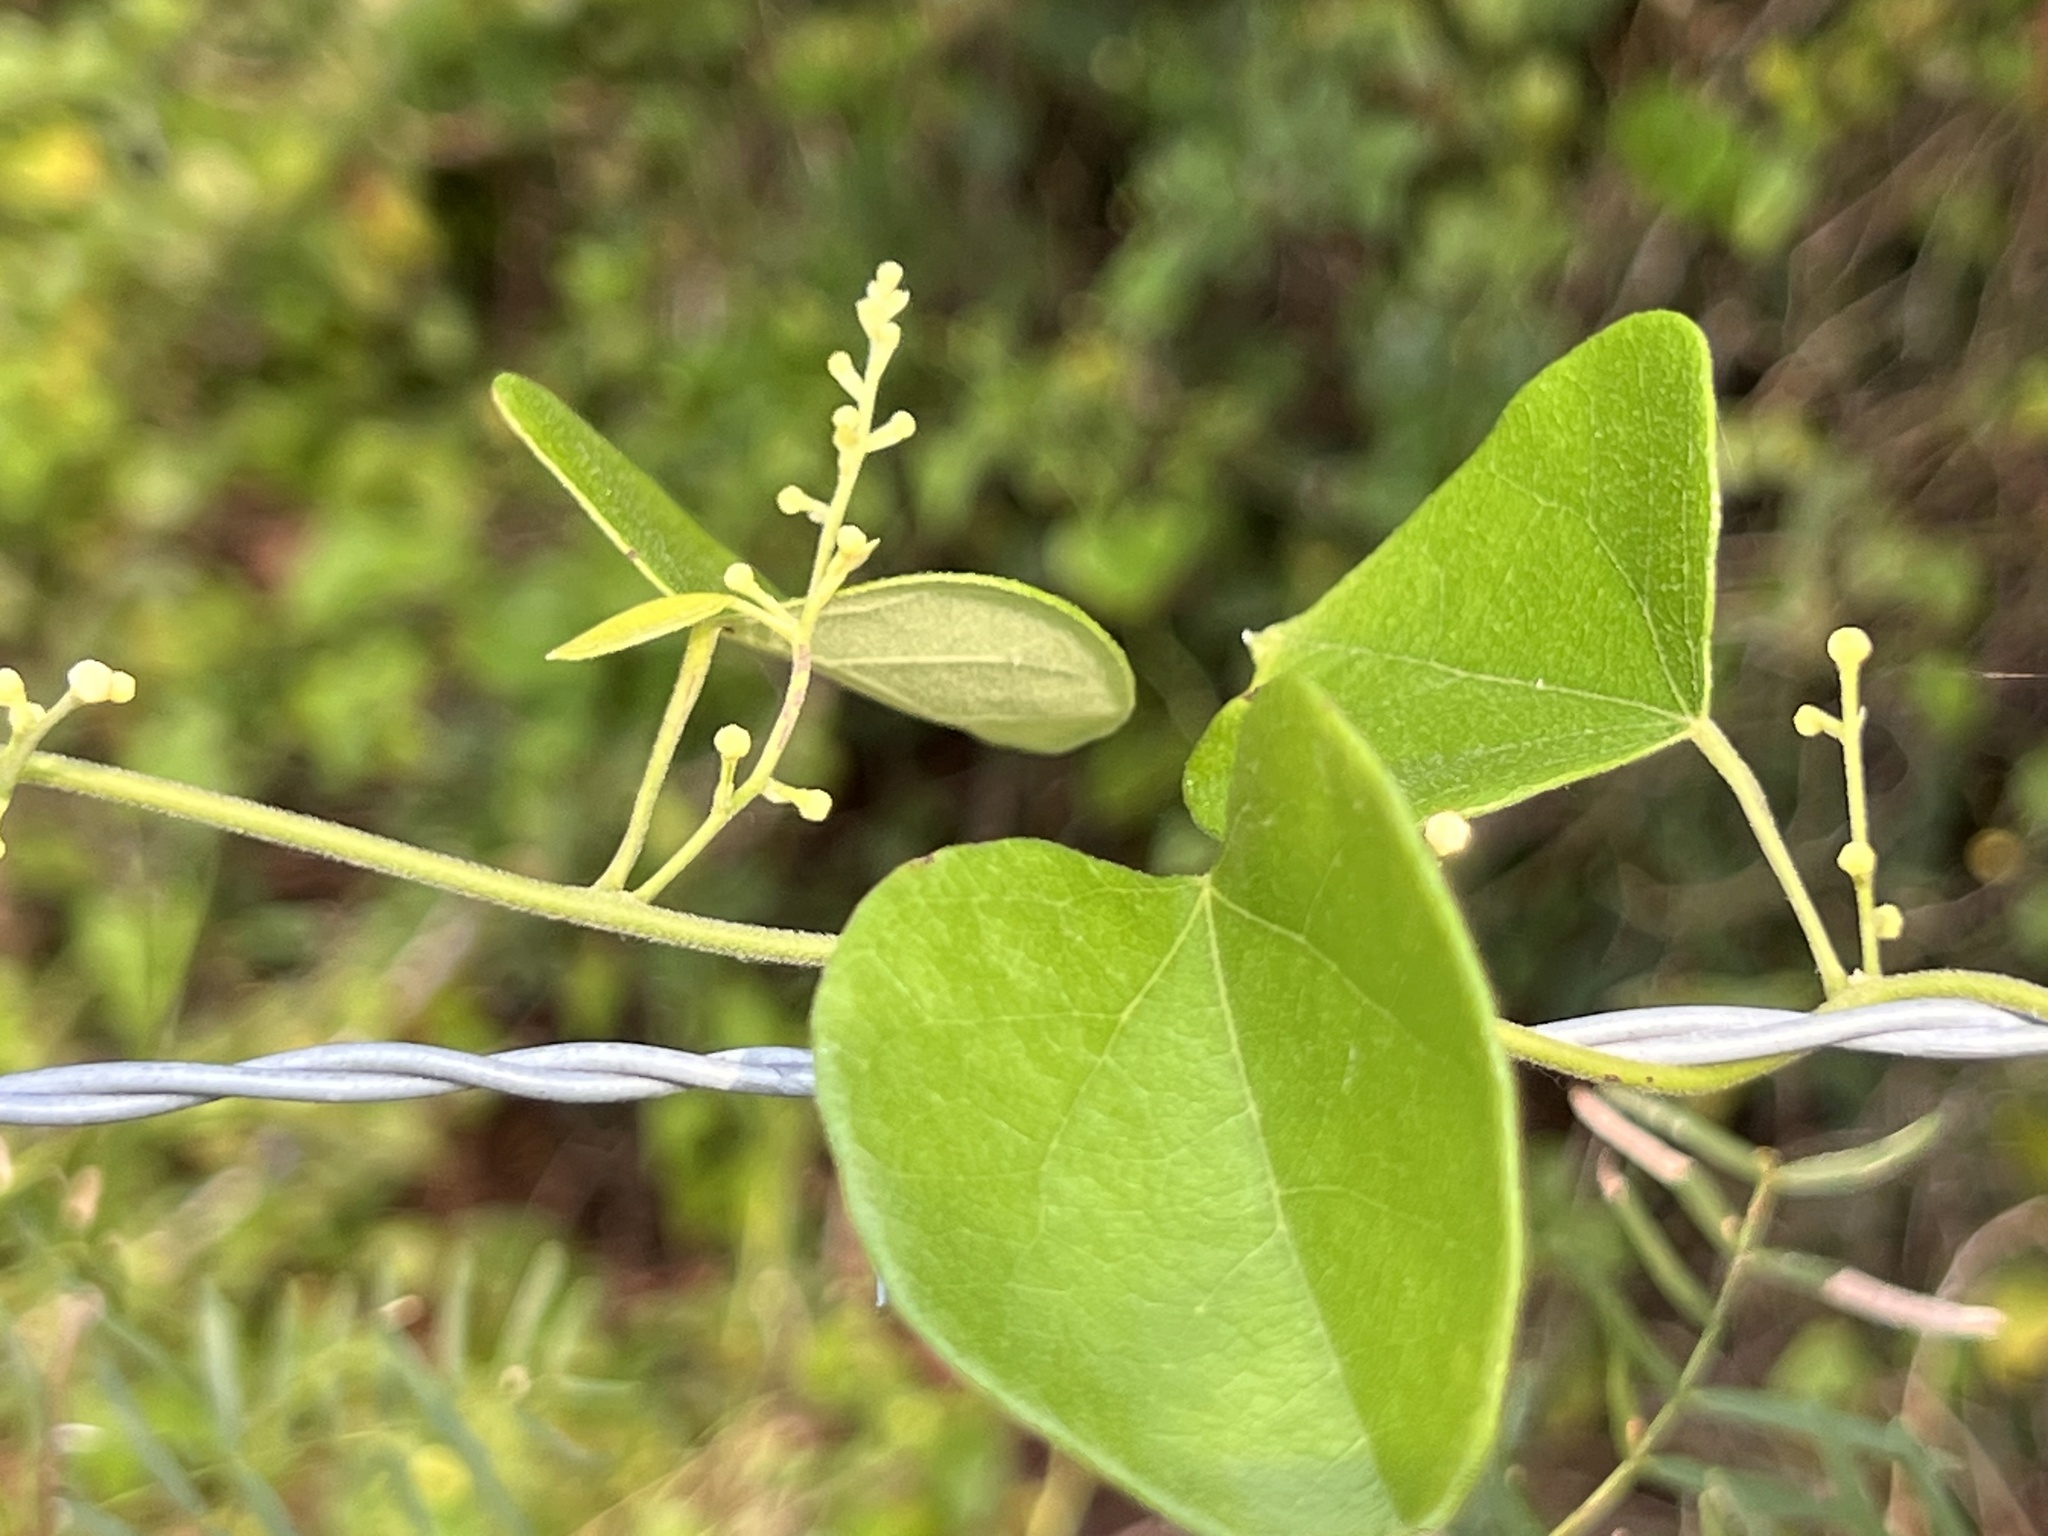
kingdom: Plantae
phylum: Tracheophyta
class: Magnoliopsida
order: Ranunculales
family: Menispermaceae
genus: Cocculus
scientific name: Cocculus carolinus
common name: Carolina moonseed
